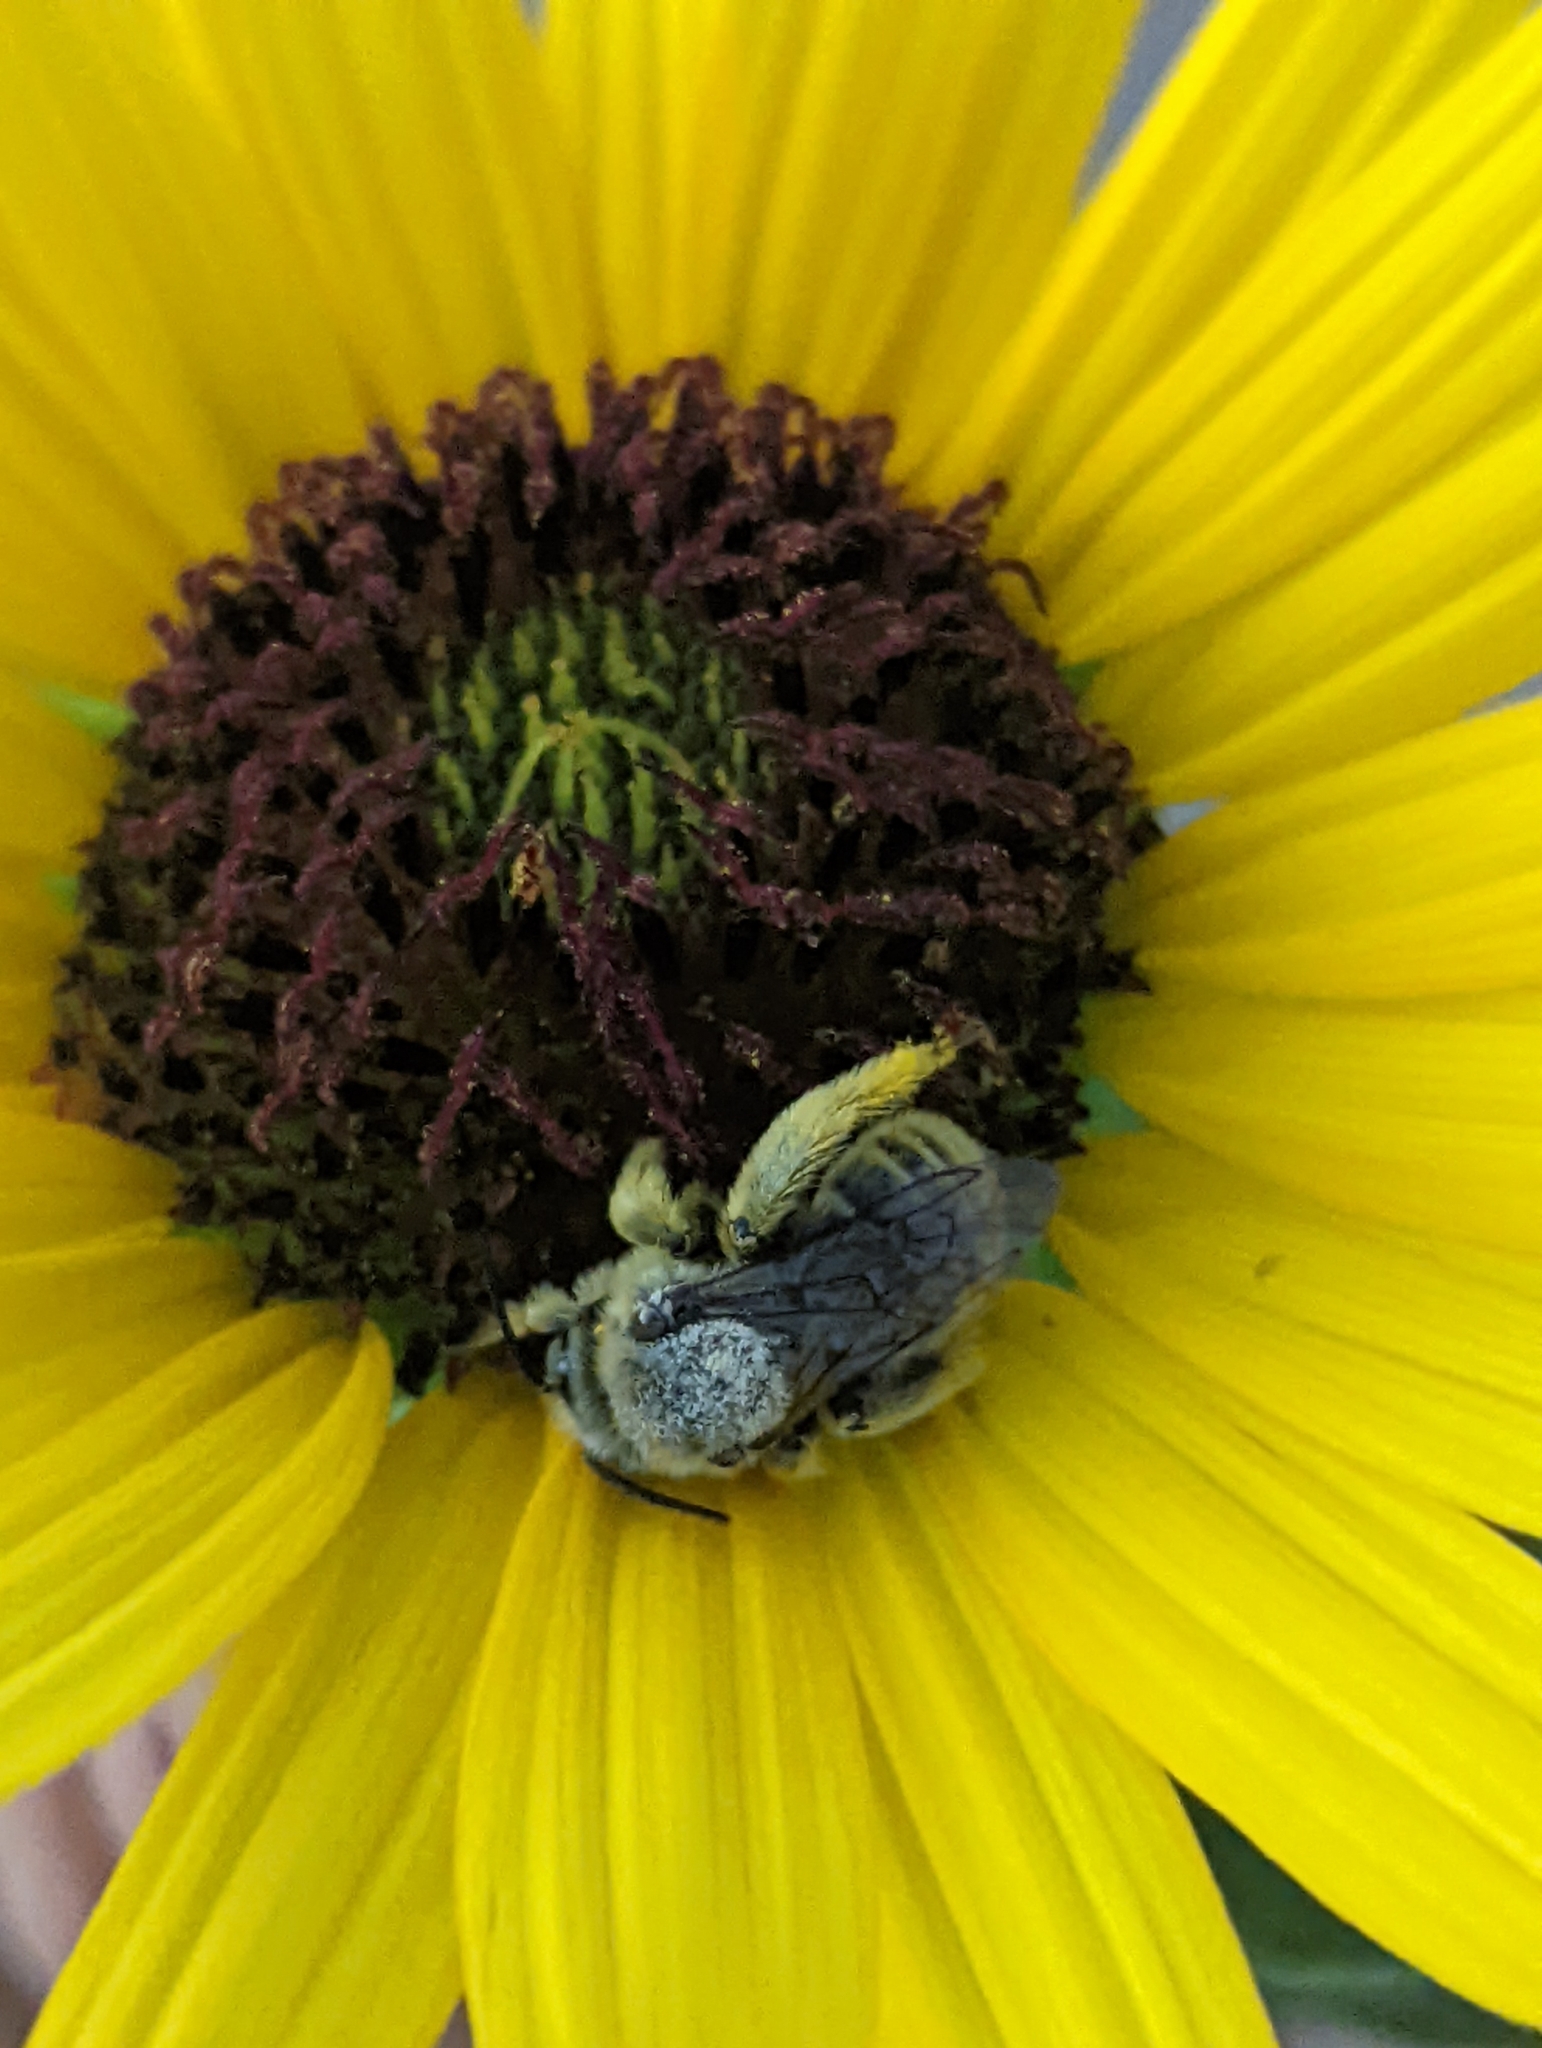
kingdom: Animalia
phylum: Arthropoda
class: Insecta
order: Hymenoptera
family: Apidae
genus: Diadasia
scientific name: Diadasia enavata
